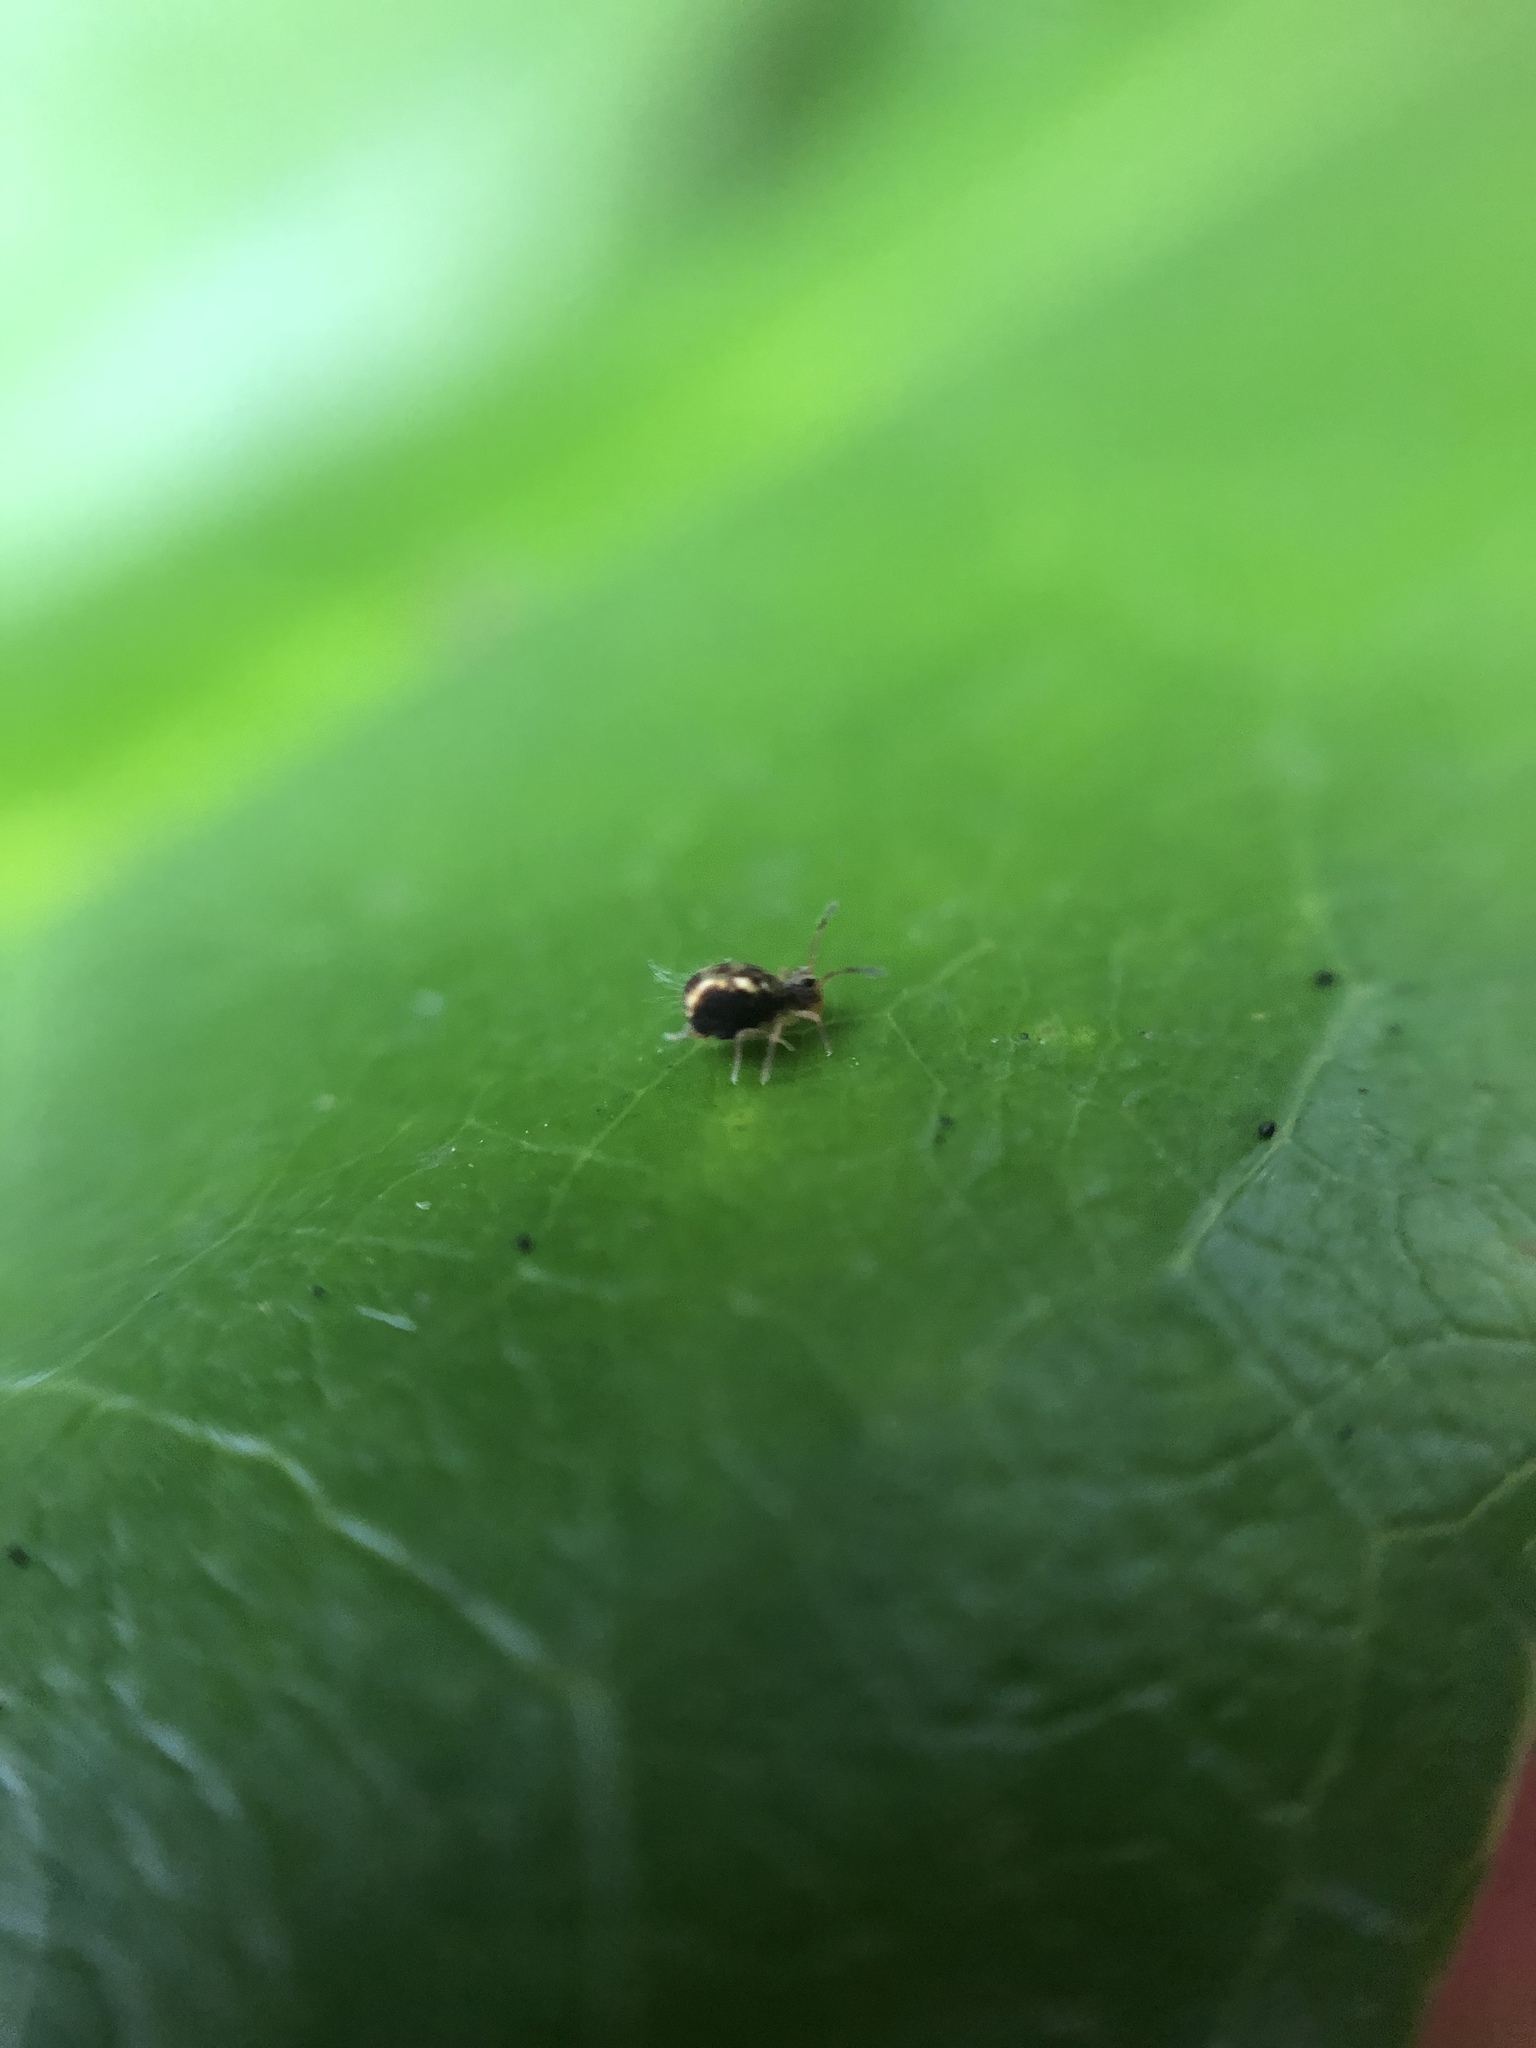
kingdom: Animalia
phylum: Arthropoda
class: Collembola
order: Symphypleona
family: Dicyrtomidae
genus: Dicyrtomina
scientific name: Dicyrtomina saundersi
